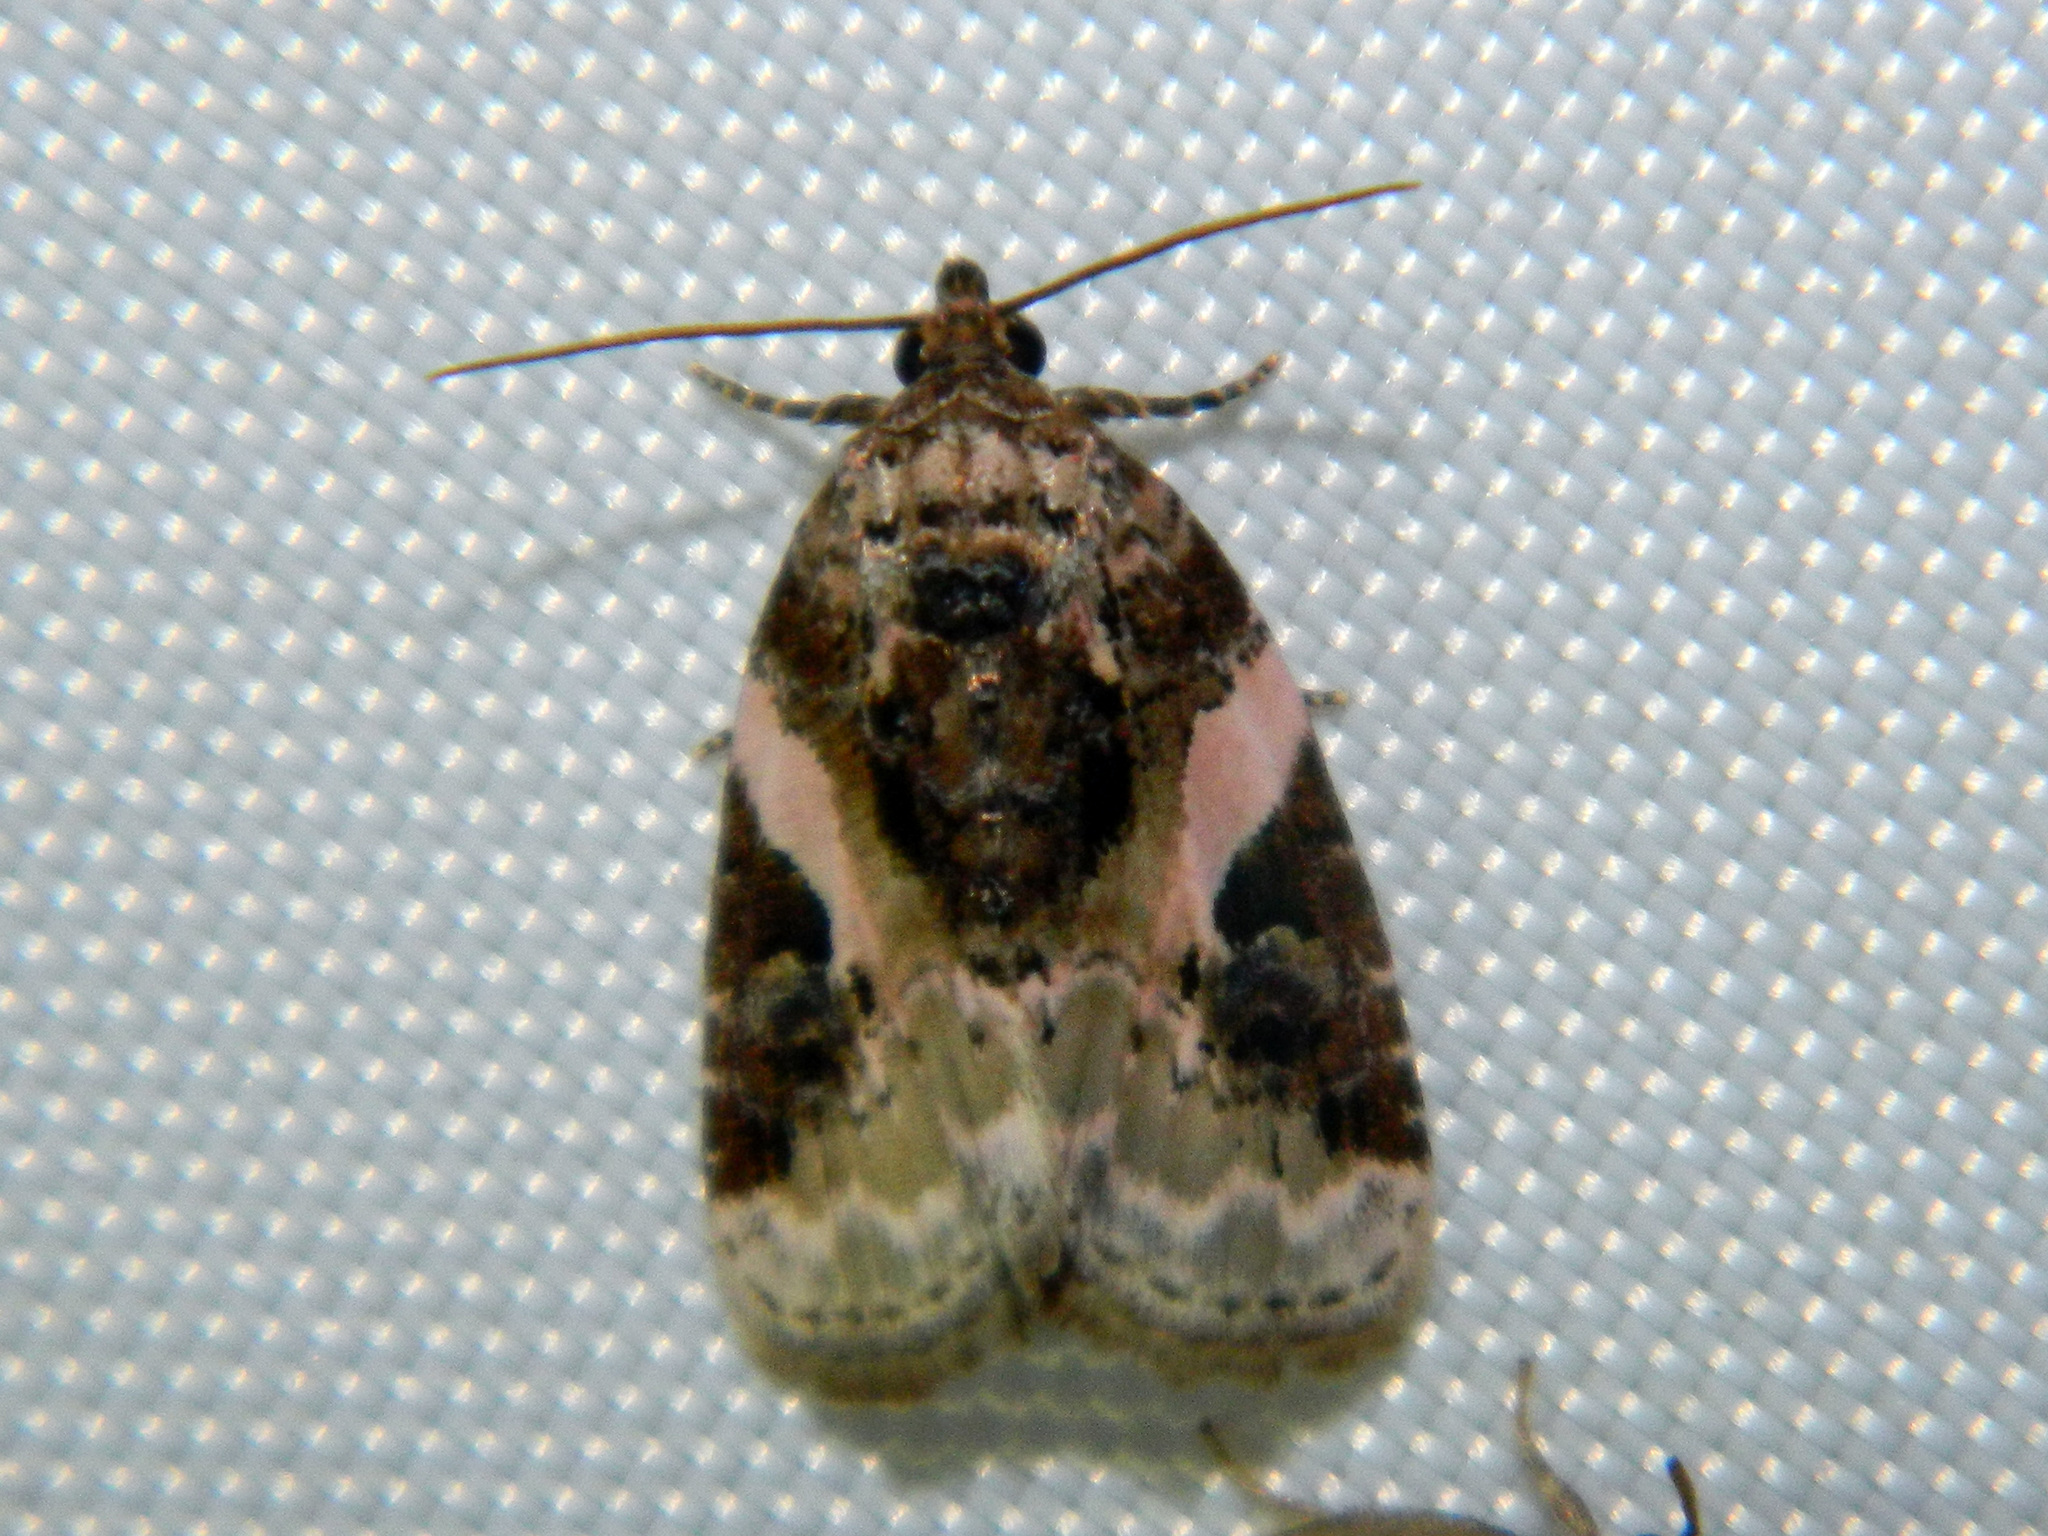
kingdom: Animalia
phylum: Arthropoda
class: Insecta
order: Lepidoptera
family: Noctuidae
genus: Pseudeustrotia
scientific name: Pseudeustrotia carneola
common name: Pink-barred lithacodia moth
